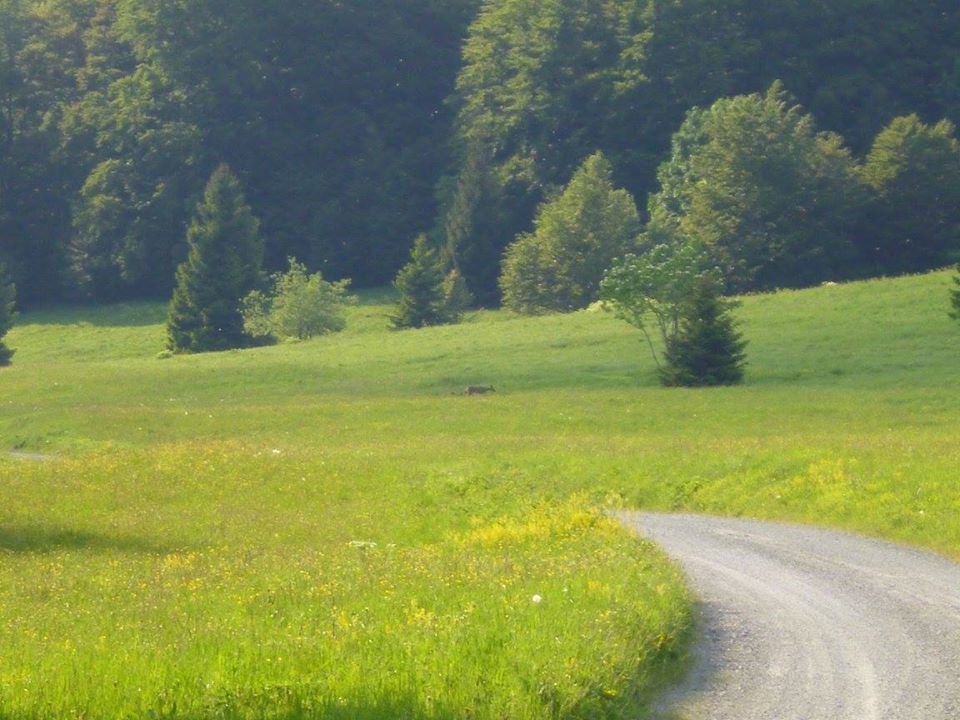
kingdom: Animalia
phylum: Chordata
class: Mammalia
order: Artiodactyla
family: Cervidae
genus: Capreolus
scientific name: Capreolus capreolus
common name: Western roe deer
